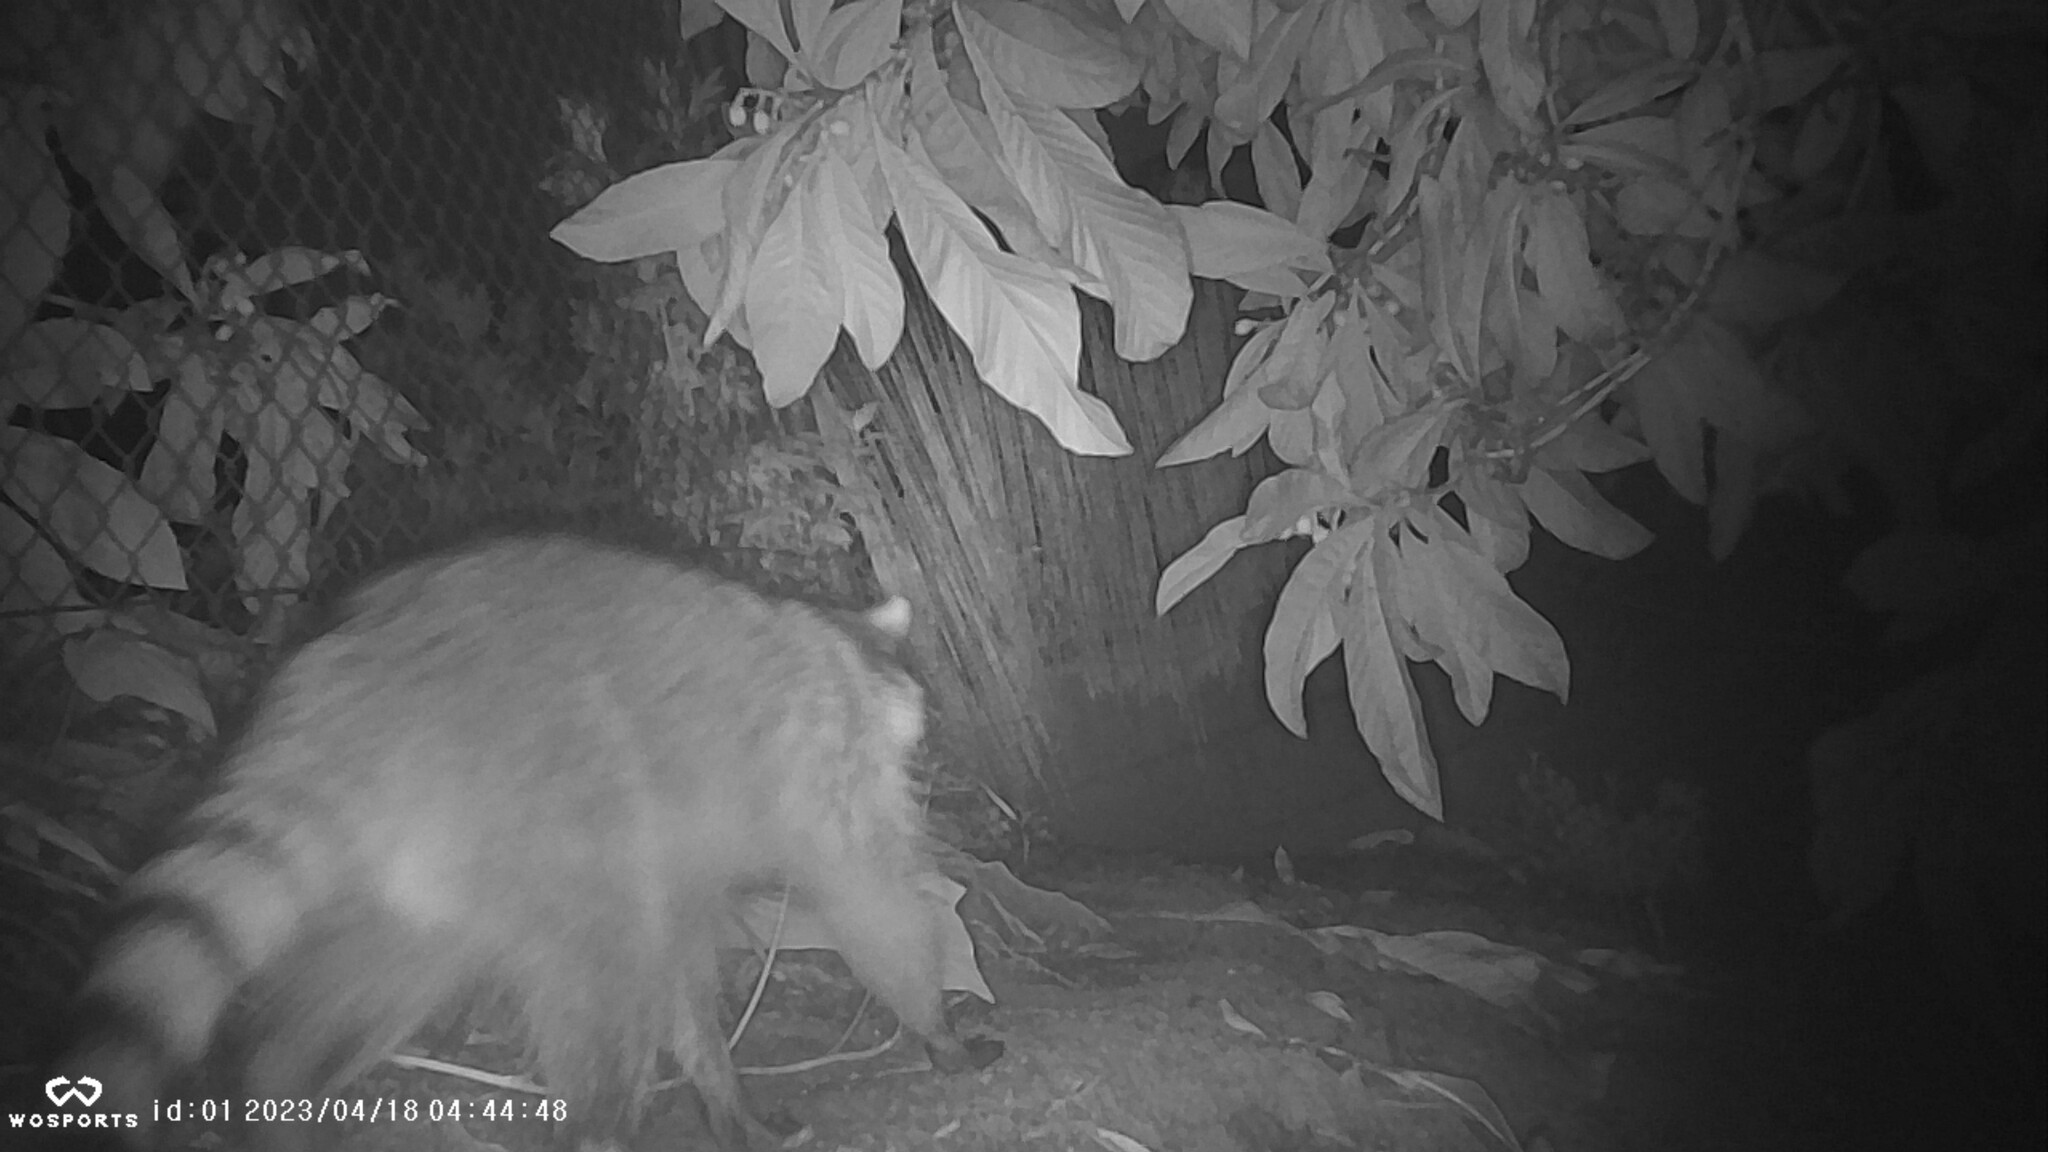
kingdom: Animalia
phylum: Chordata
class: Mammalia
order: Carnivora
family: Procyonidae
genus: Procyon
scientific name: Procyon lotor
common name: Raccoon
